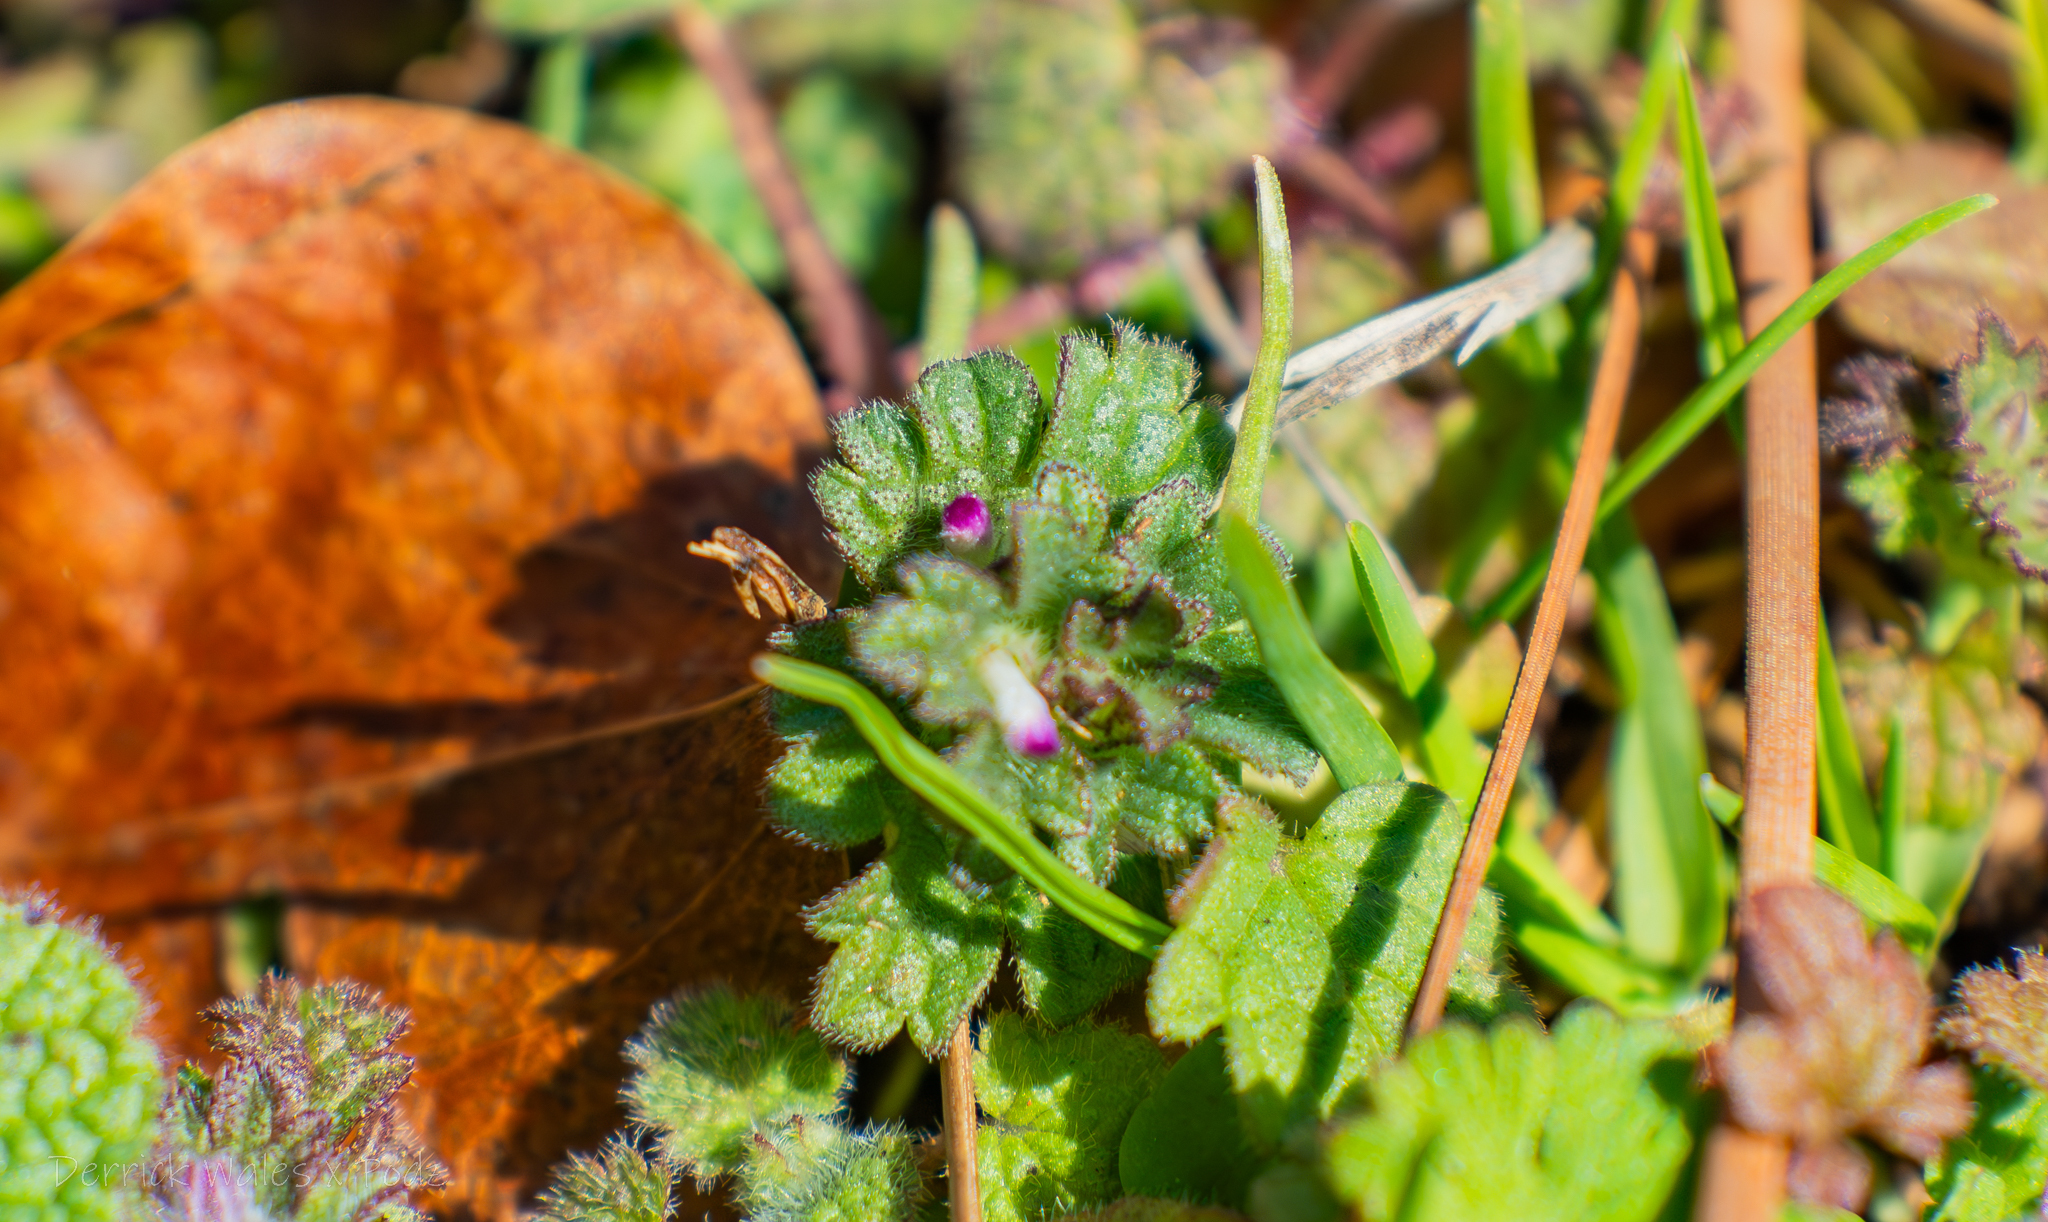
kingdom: Plantae
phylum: Tracheophyta
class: Magnoliopsida
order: Lamiales
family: Lamiaceae
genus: Lamium
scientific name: Lamium amplexicaule
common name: Henbit dead-nettle
